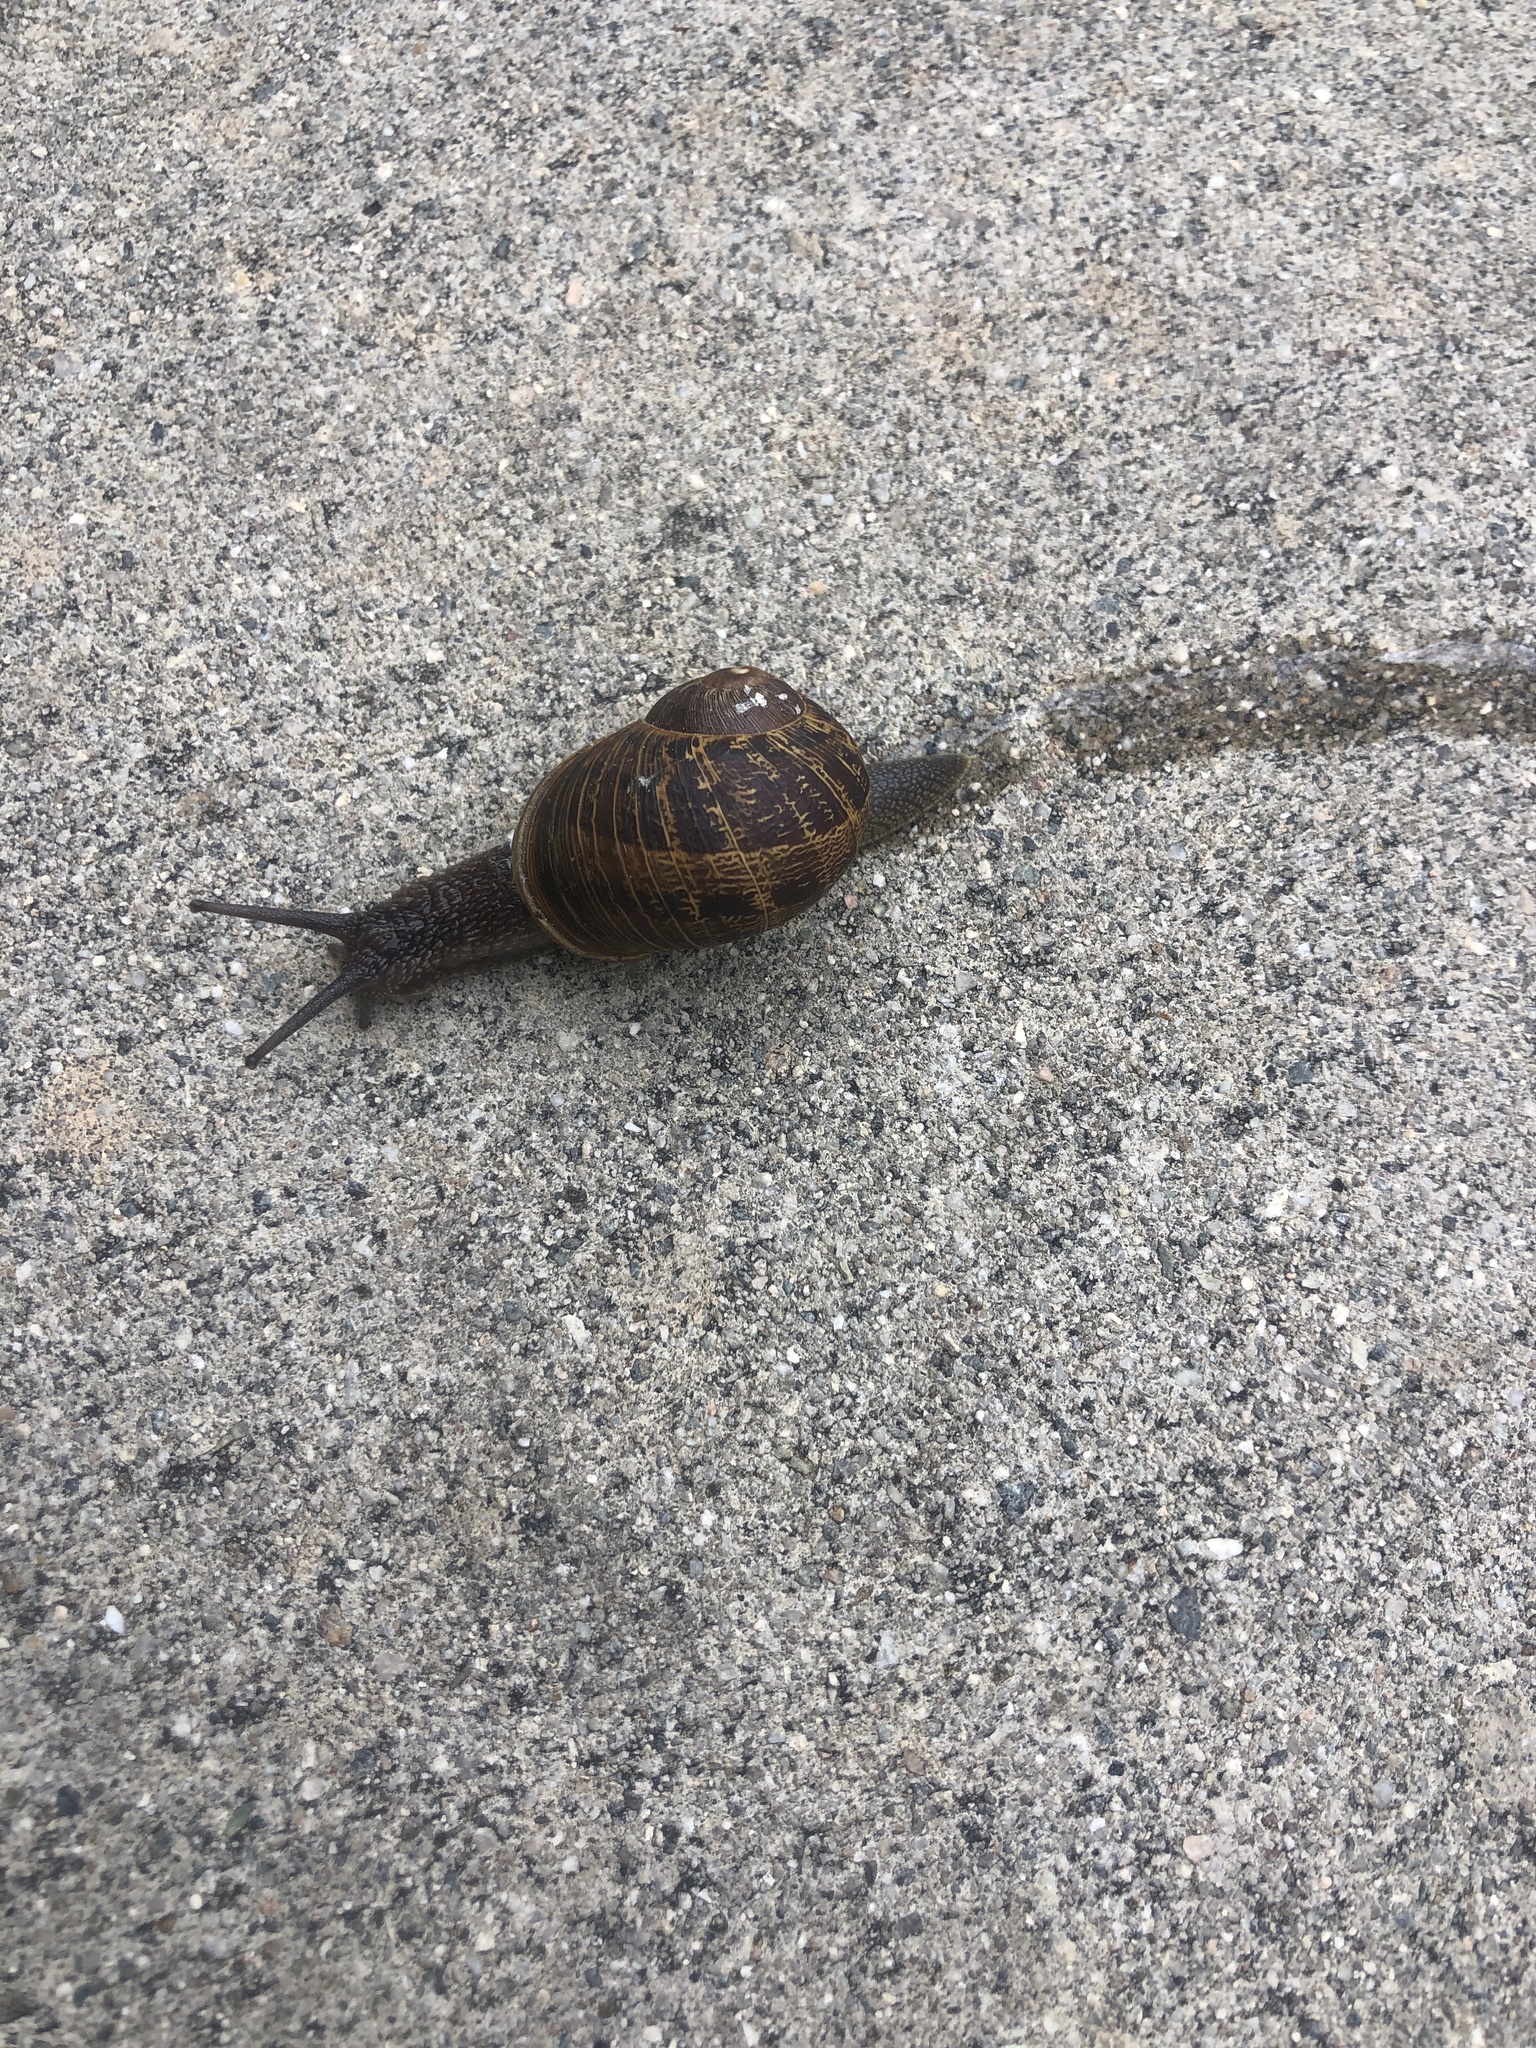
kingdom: Animalia
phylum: Mollusca
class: Gastropoda
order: Stylommatophora
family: Helicidae
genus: Cornu
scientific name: Cornu aspersum
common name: Brown garden snail
